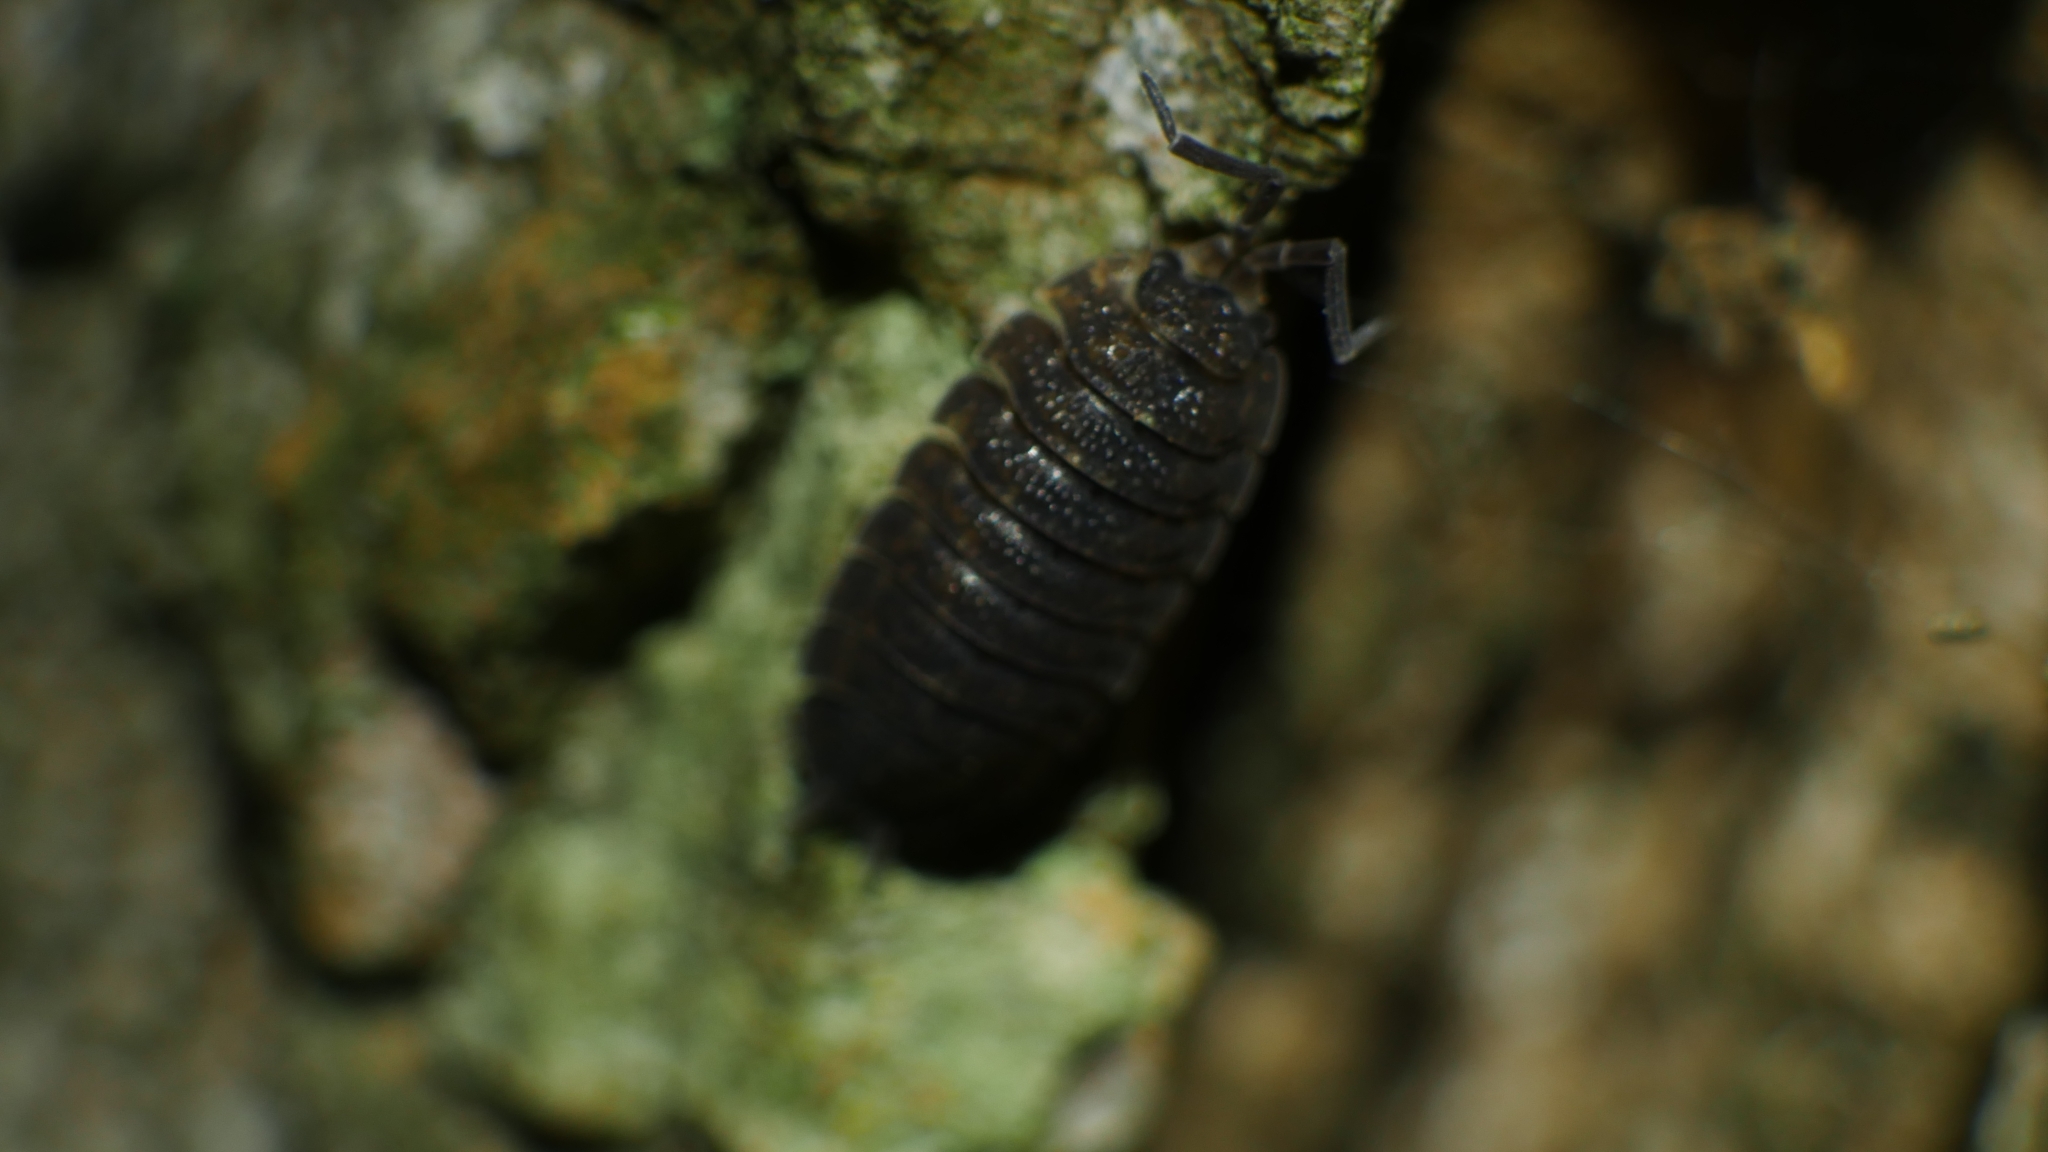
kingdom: Animalia
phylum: Arthropoda
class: Malacostraca
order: Isopoda
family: Porcellionidae
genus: Porcellio
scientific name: Porcellio scaber
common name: Common rough woodlouse
